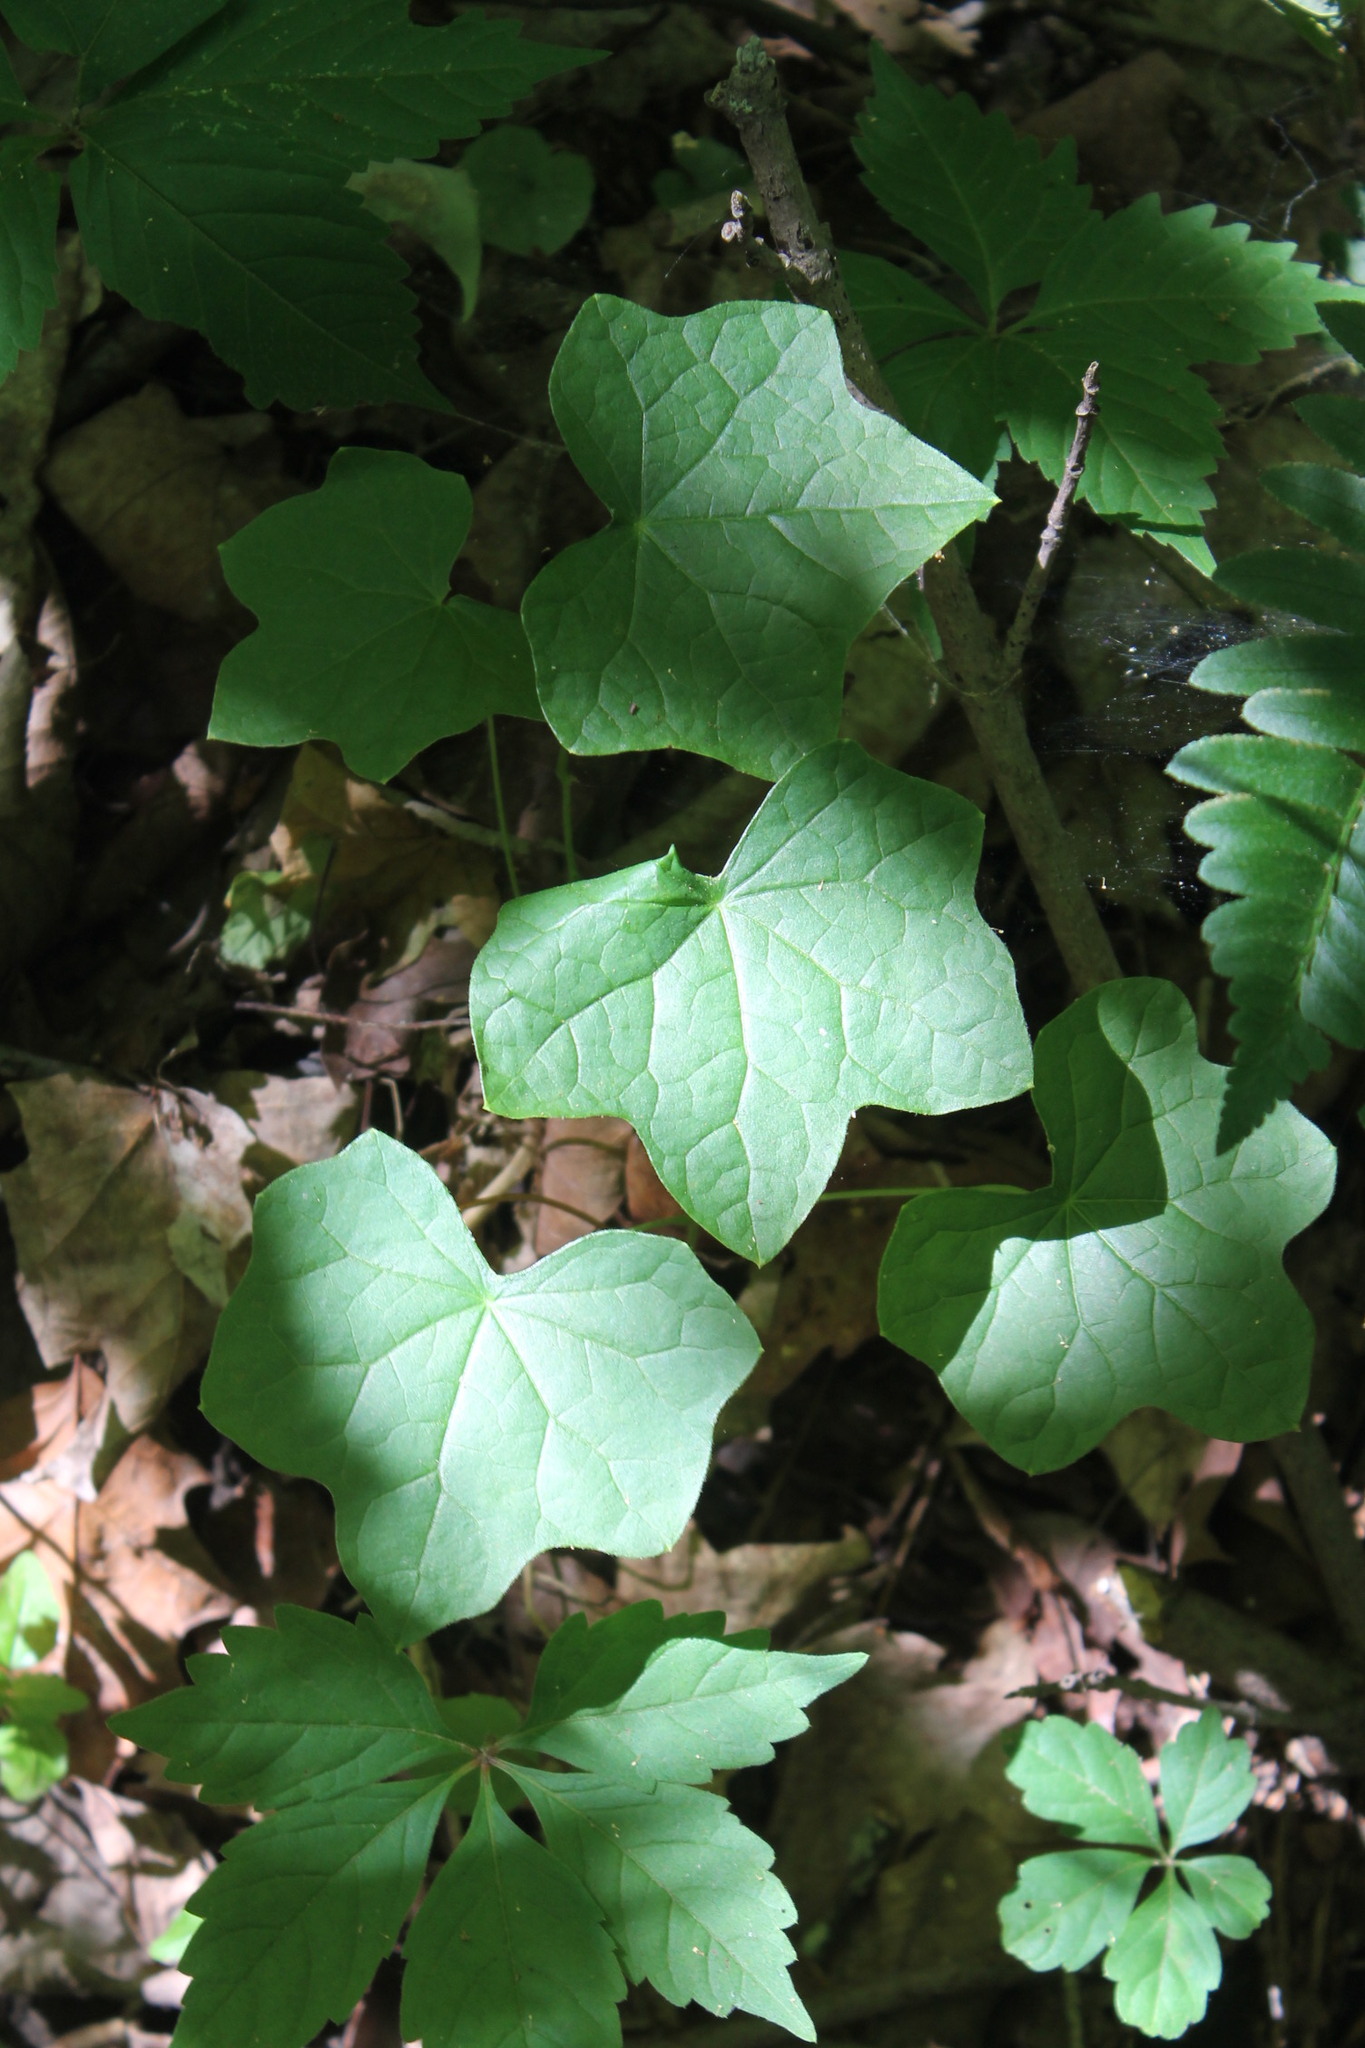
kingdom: Plantae
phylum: Tracheophyta
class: Magnoliopsida
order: Ranunculales
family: Menispermaceae
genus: Menispermum
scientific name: Menispermum canadense
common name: Moonseed
